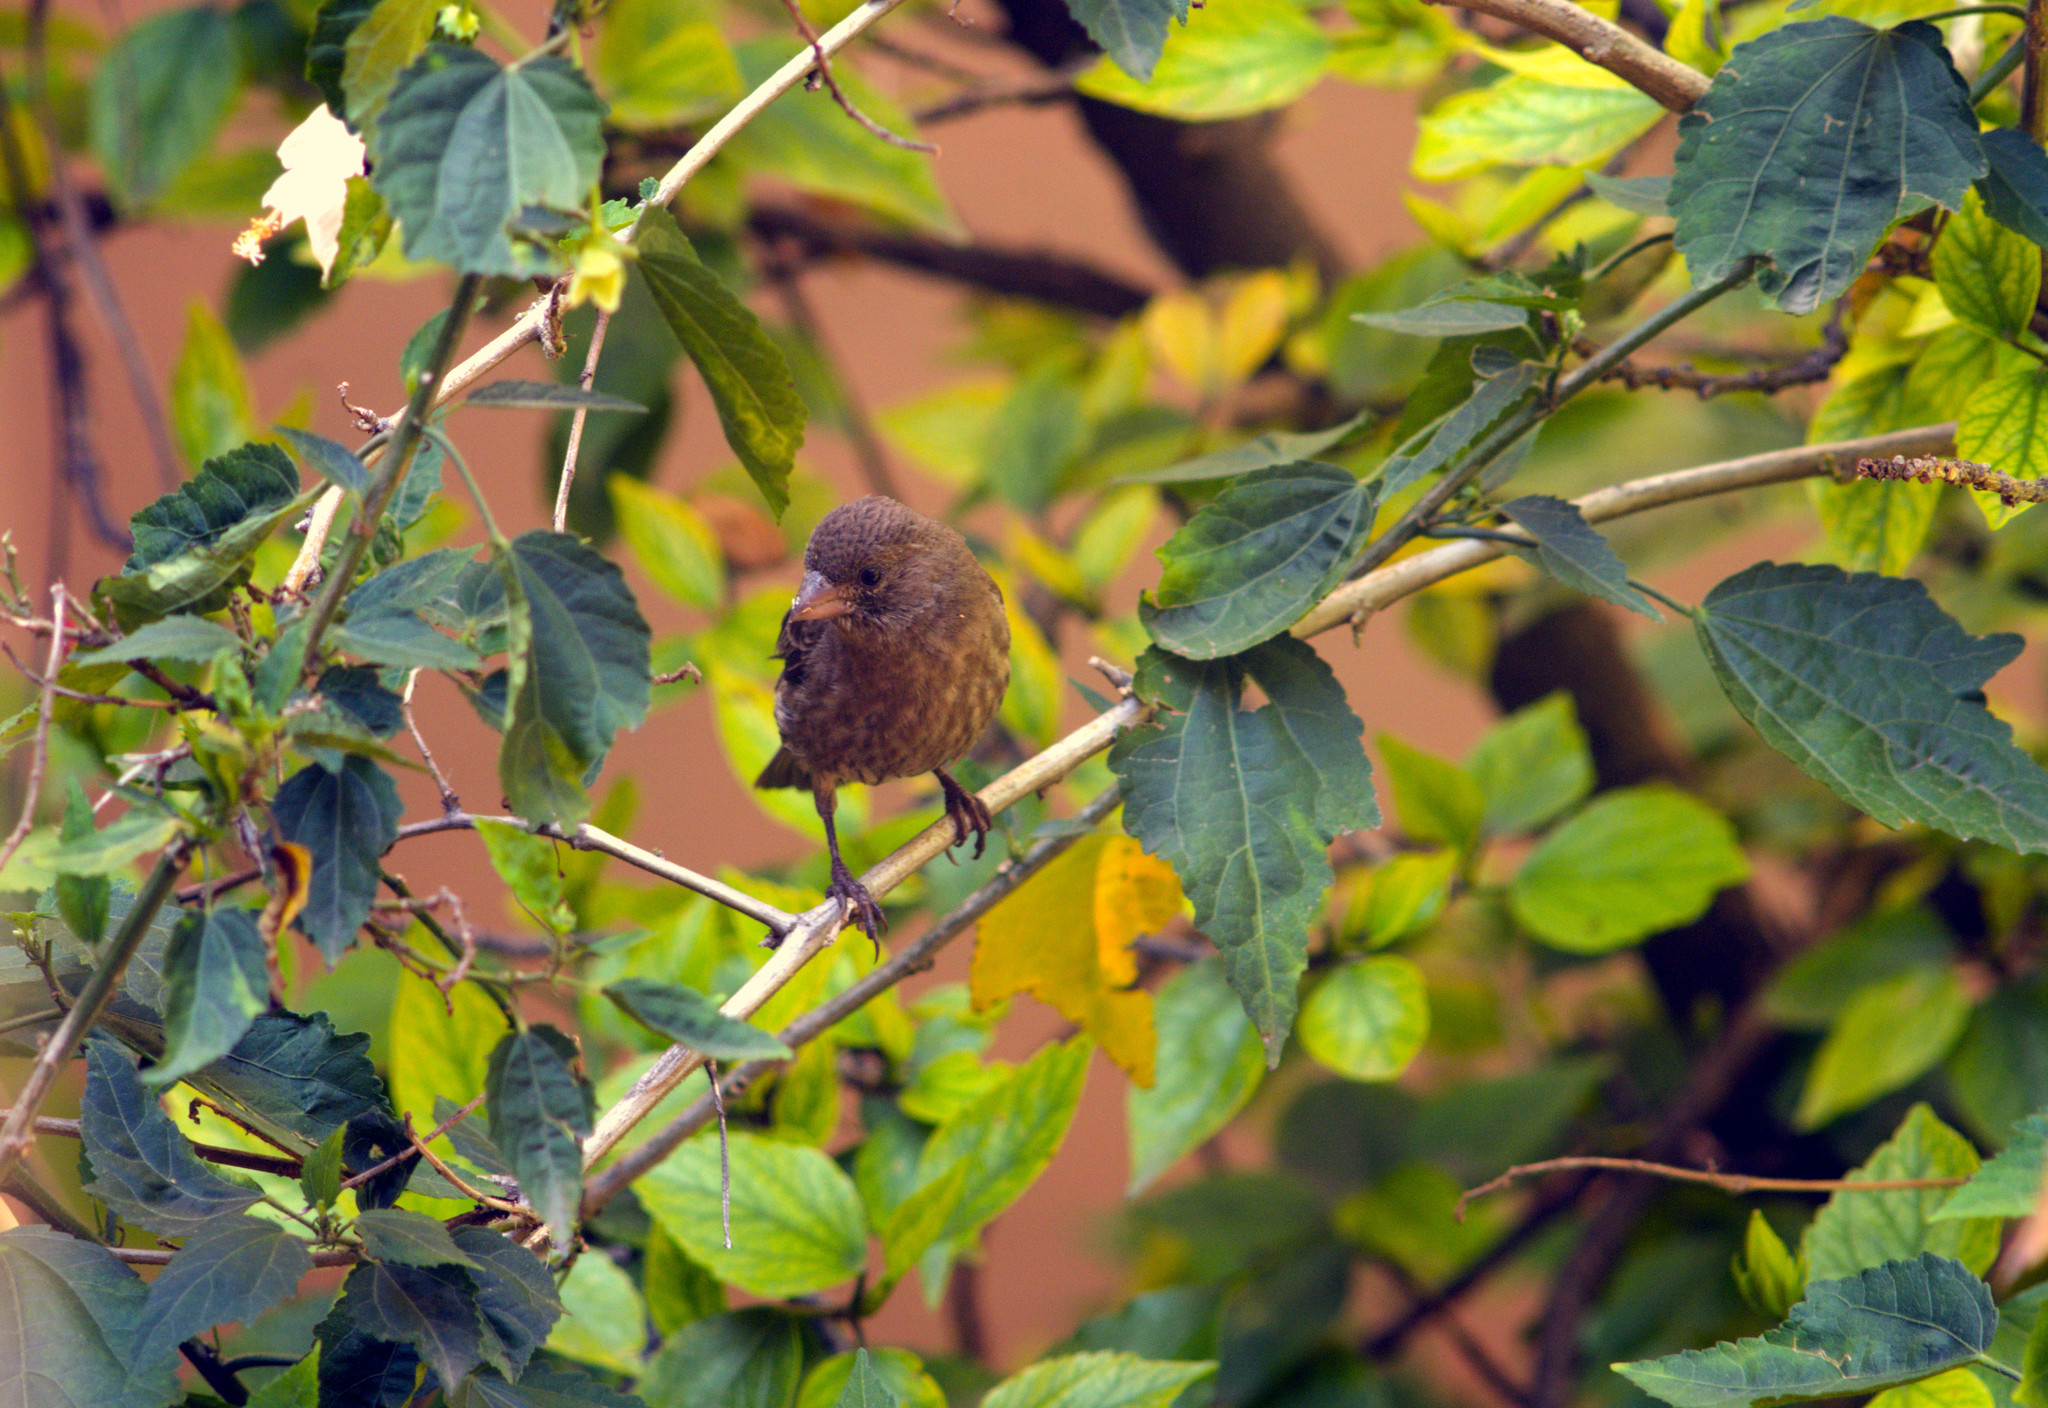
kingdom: Animalia
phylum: Chordata
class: Aves
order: Passeriformes
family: Fringillidae
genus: Haemorhous
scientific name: Haemorhous mexicanus
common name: House finch
